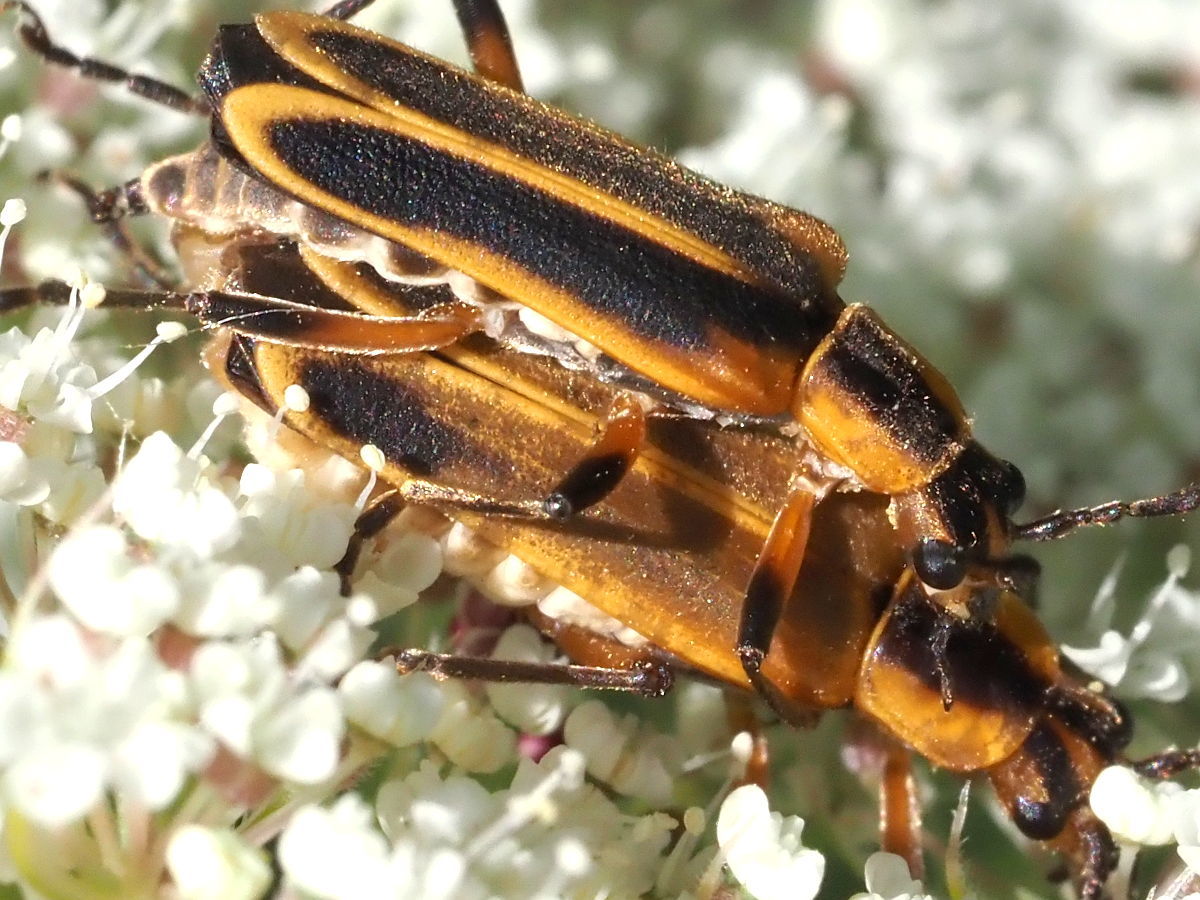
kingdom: Animalia
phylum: Arthropoda
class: Insecta
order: Coleoptera
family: Cantharidae
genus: Chauliognathus
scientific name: Chauliognathus marginatus
